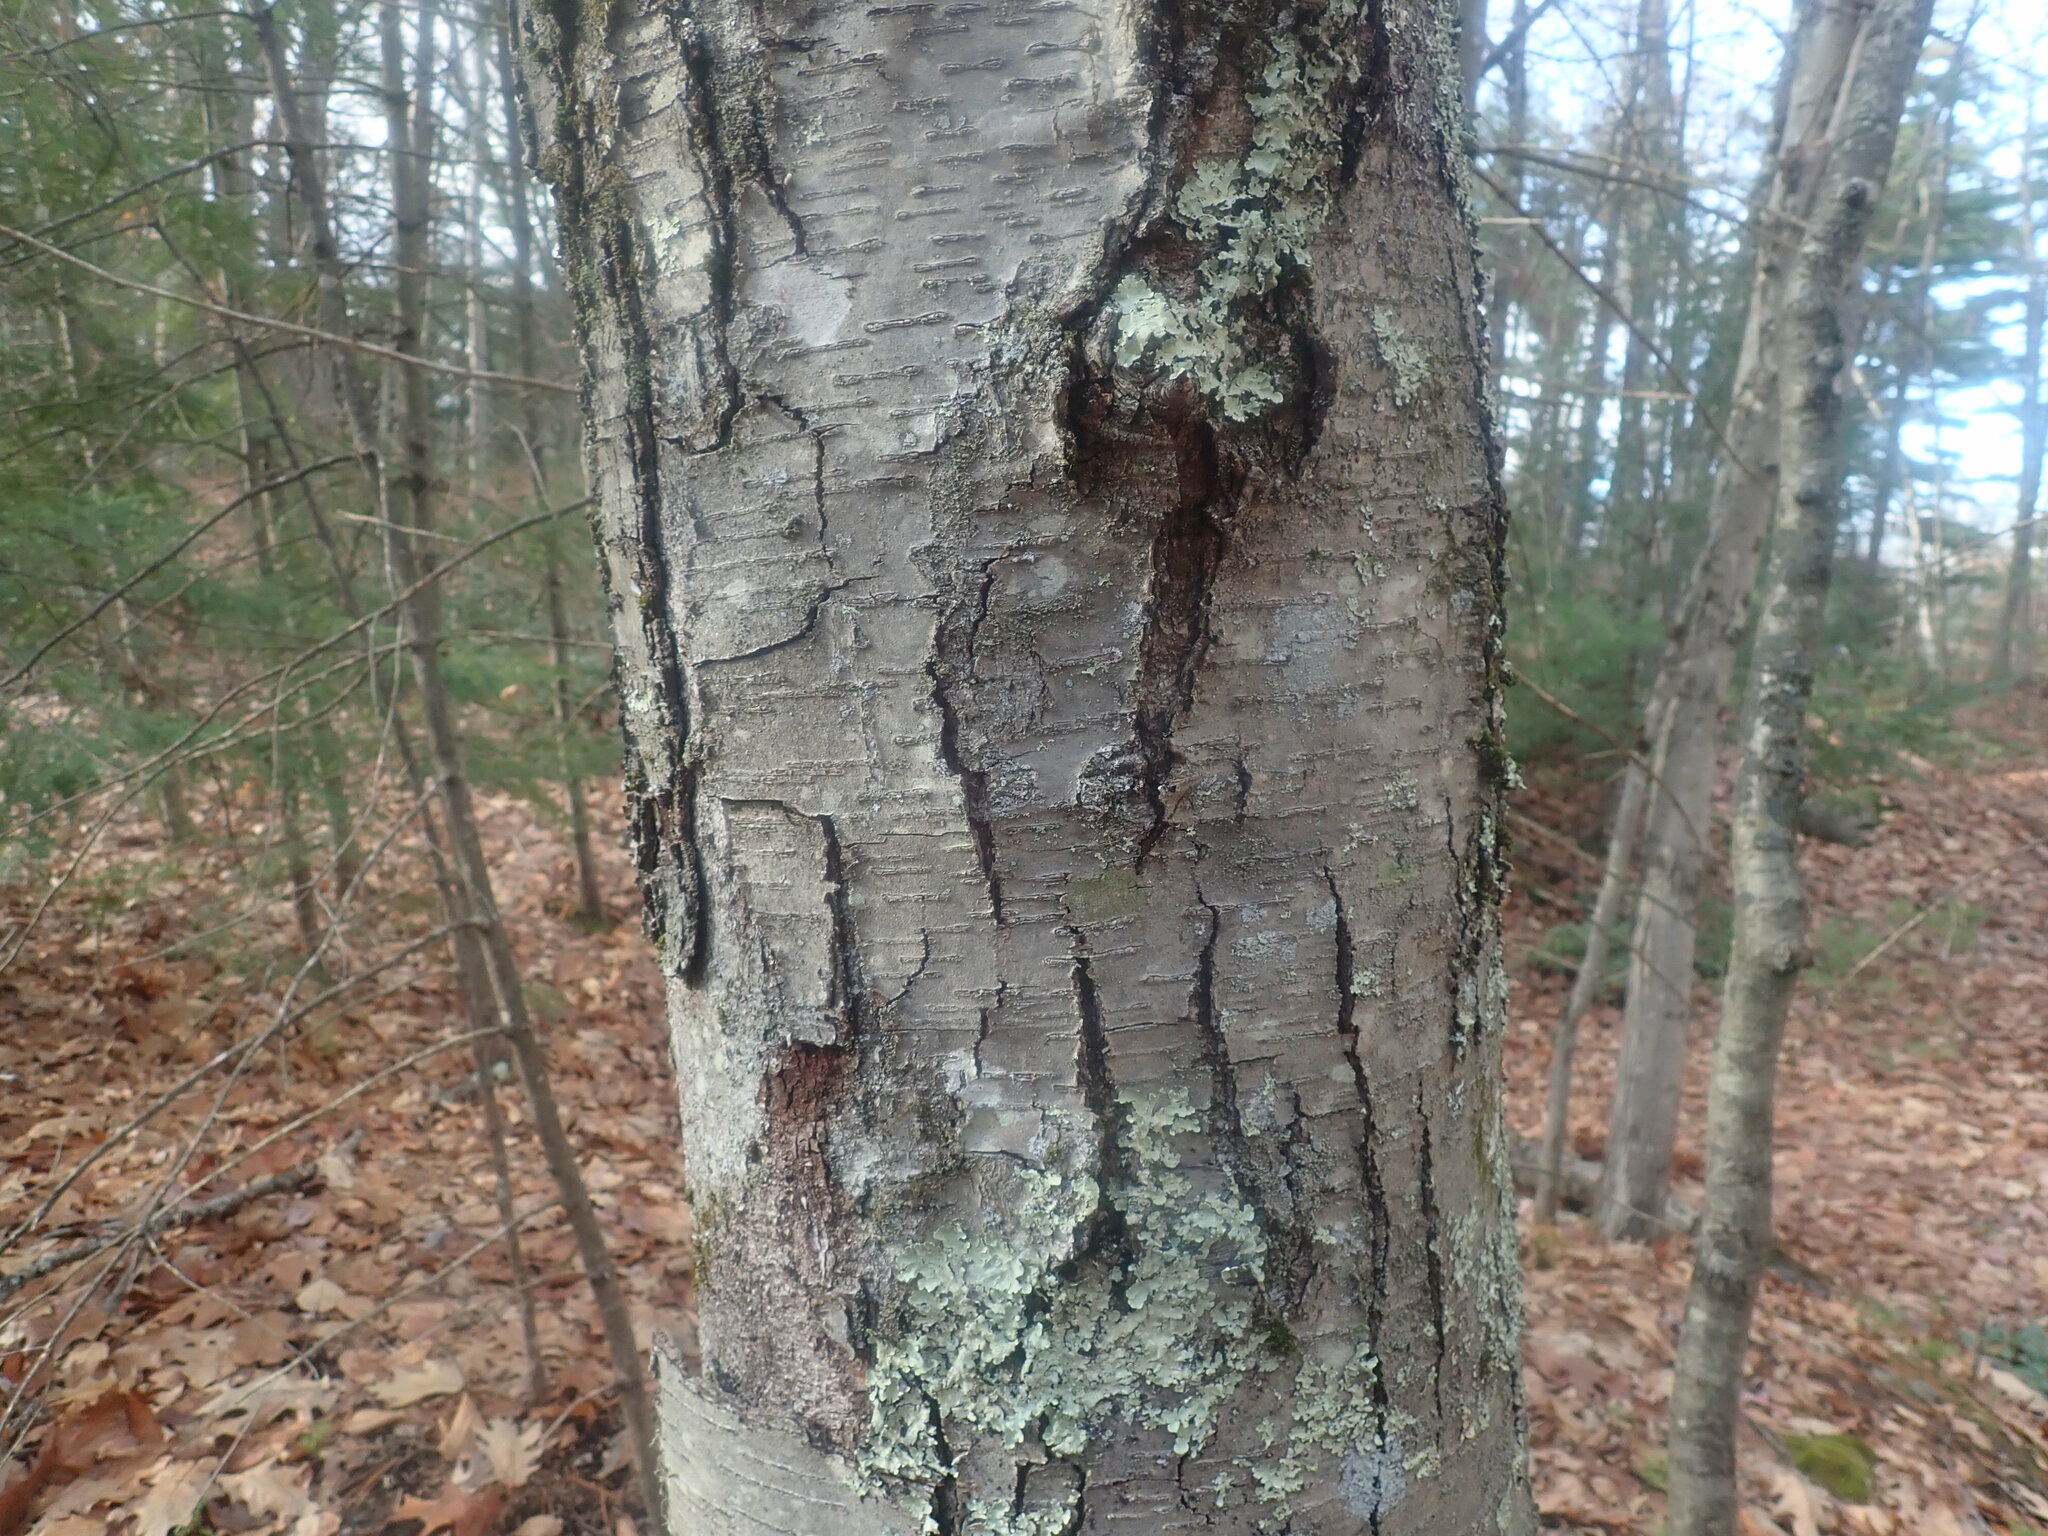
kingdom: Plantae
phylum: Tracheophyta
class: Magnoliopsida
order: Fagales
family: Betulaceae
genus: Betula
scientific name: Betula lenta
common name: Black birch
